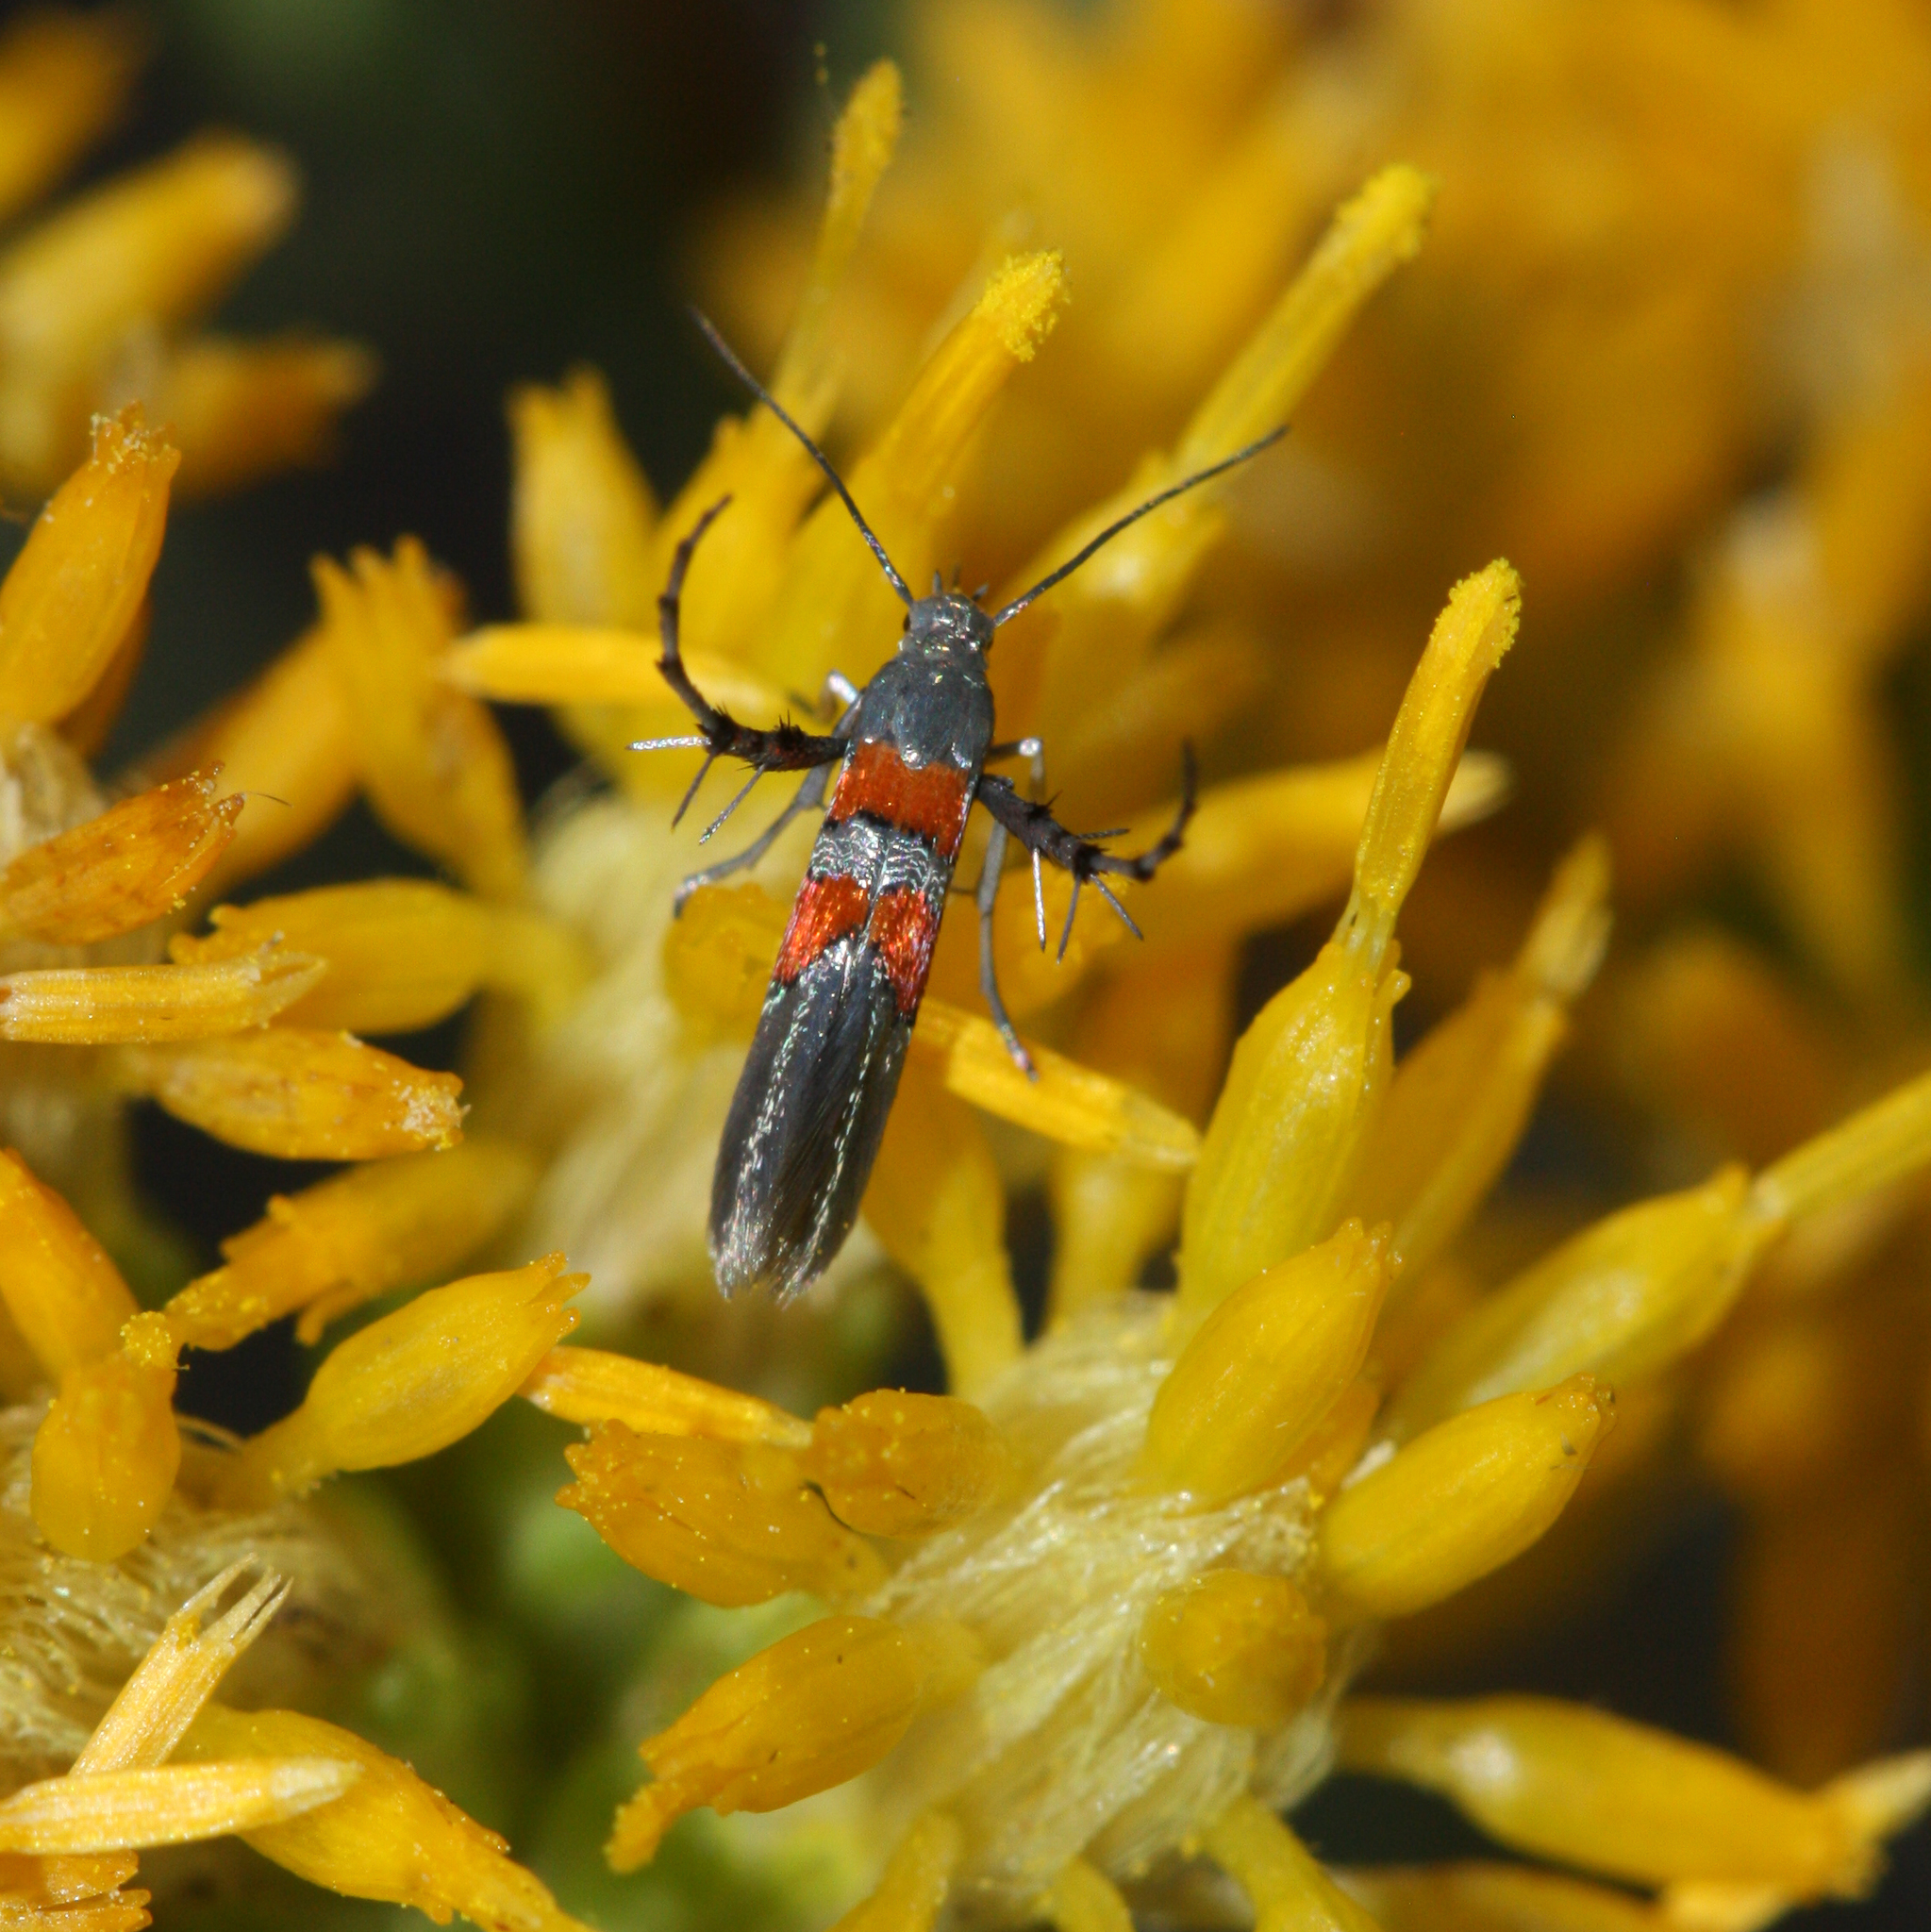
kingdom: Animalia
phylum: Arthropoda
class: Insecta
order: Lepidoptera
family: Heliodinidae
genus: Heliodines
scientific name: Heliodines Aetole unipunctella
